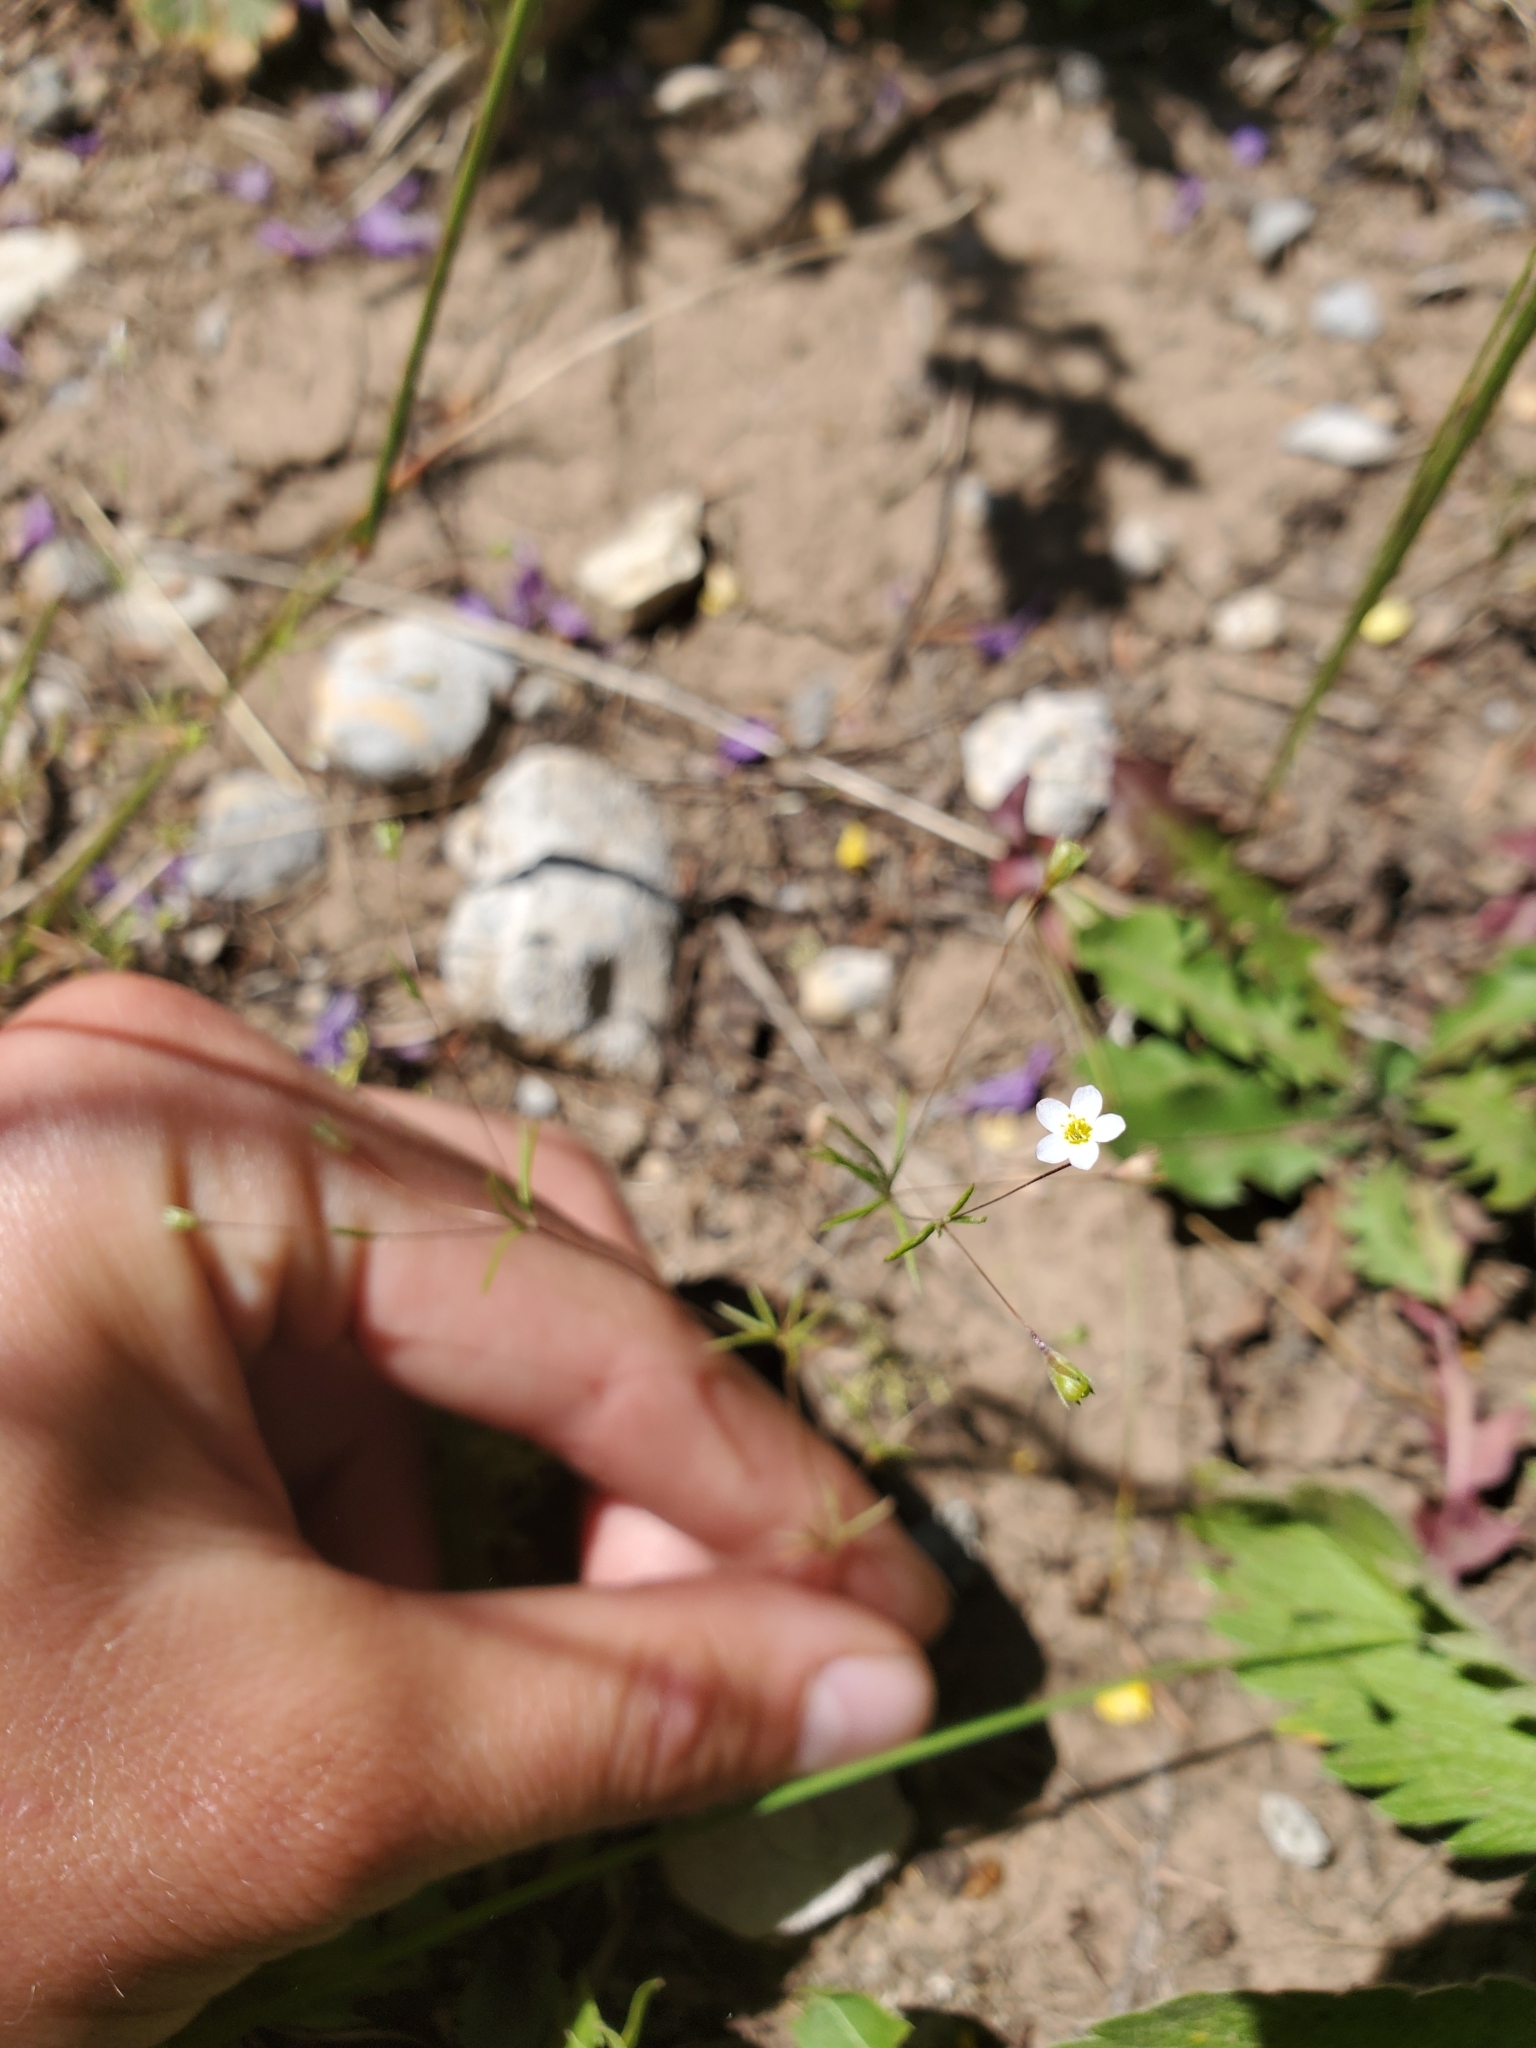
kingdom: Plantae
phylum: Tracheophyta
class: Magnoliopsida
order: Ericales
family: Polemoniaceae
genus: Leptosiphon
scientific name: Leptosiphon septentrionalis
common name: Northern linanthus
